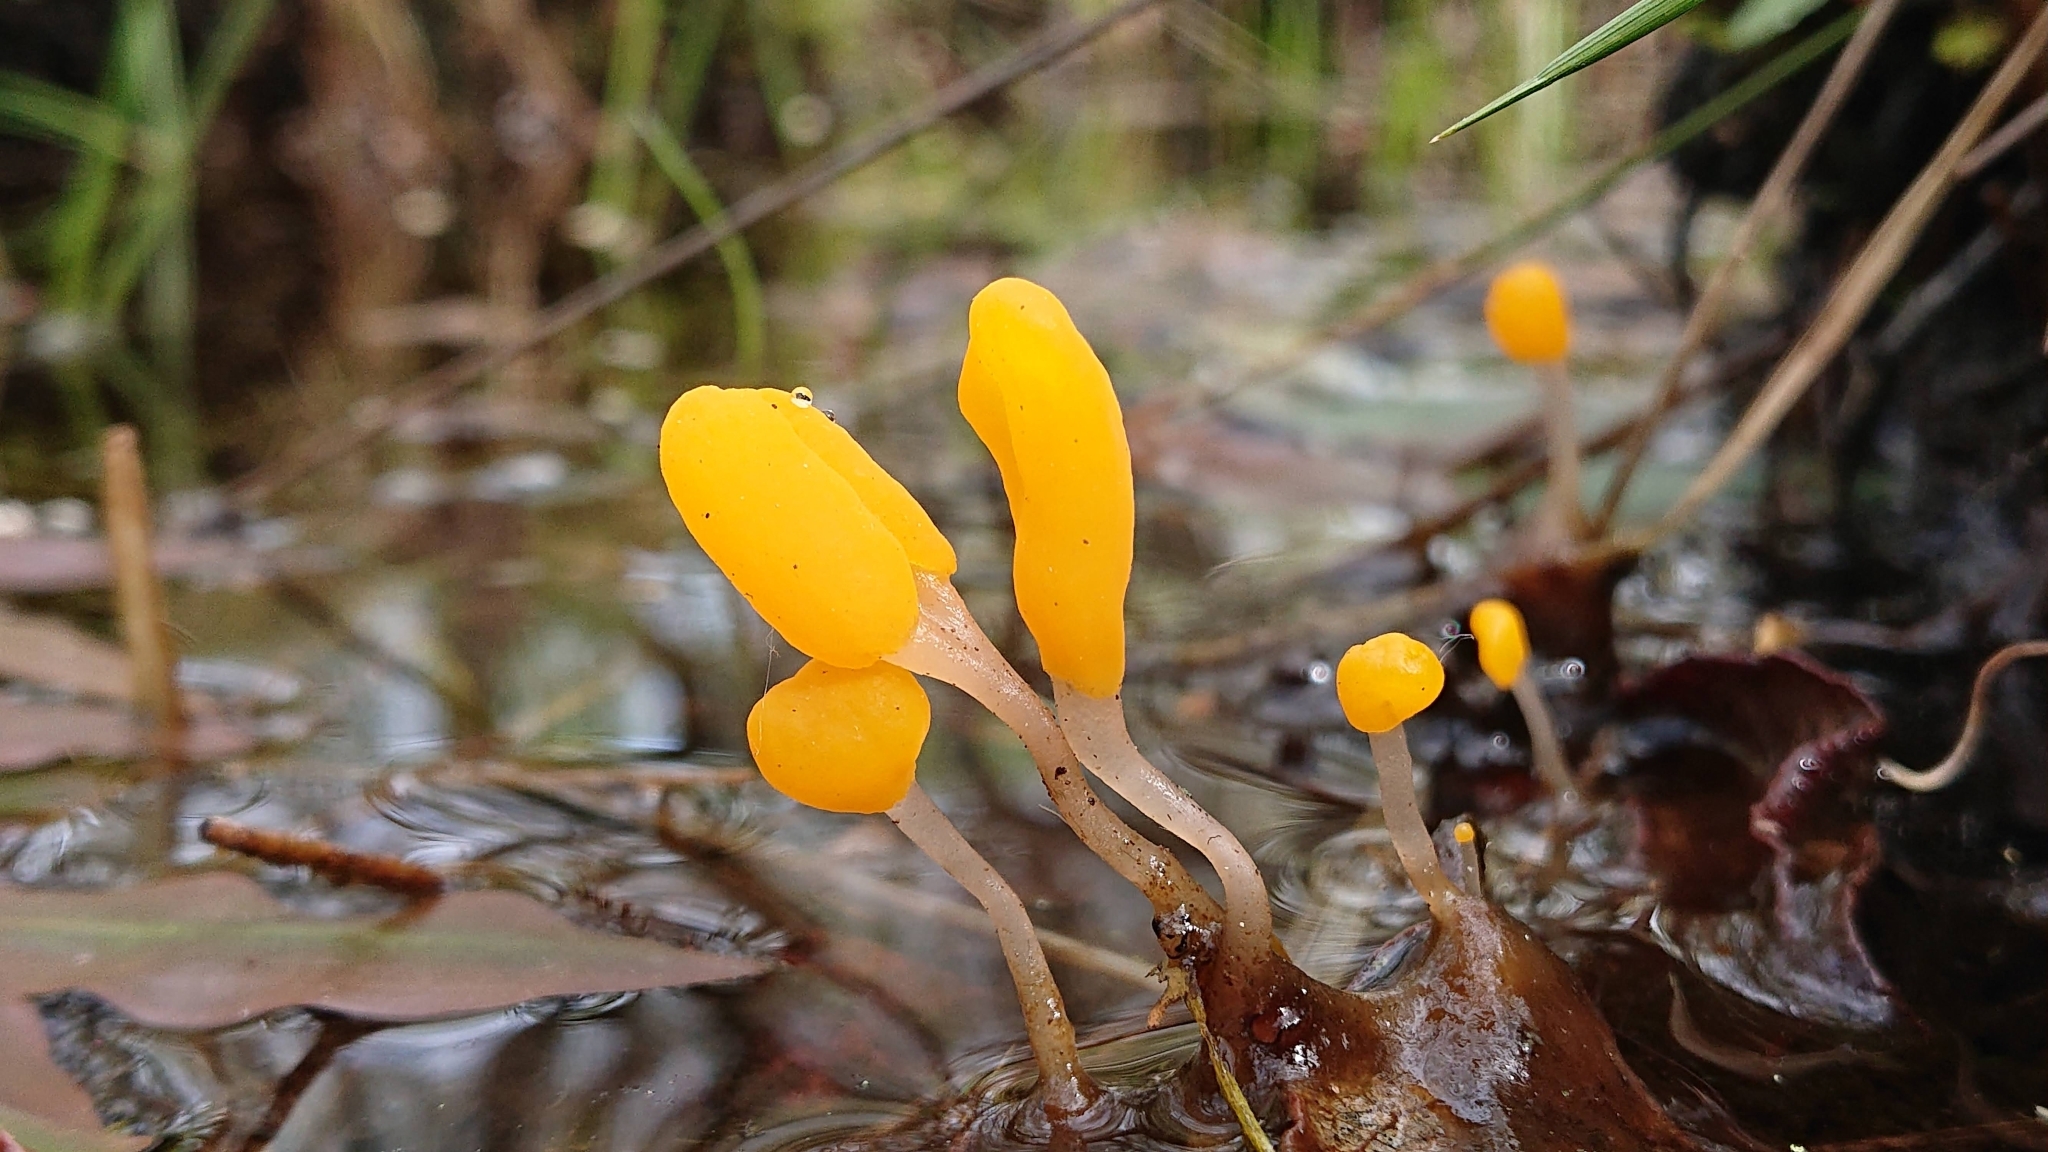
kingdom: Fungi
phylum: Ascomycota
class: Leotiomycetes
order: Helotiales
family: Cenangiaceae
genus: Mitrula
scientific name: Mitrula paludosa
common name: Bog beacon
